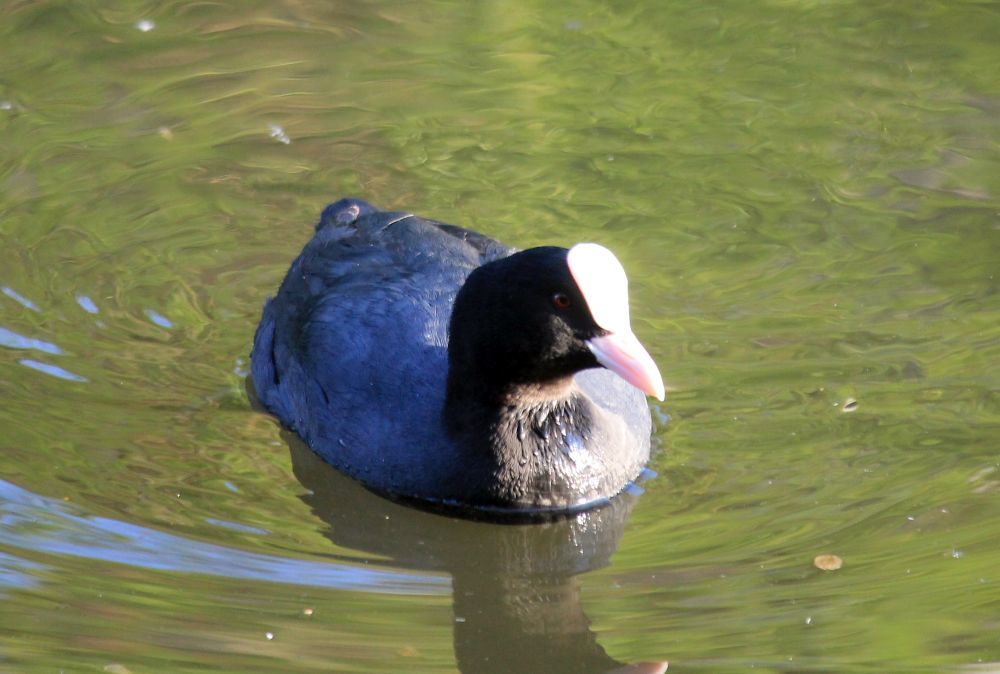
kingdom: Animalia
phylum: Chordata
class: Aves
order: Gruiformes
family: Rallidae
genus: Fulica
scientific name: Fulica atra
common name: Eurasian coot
